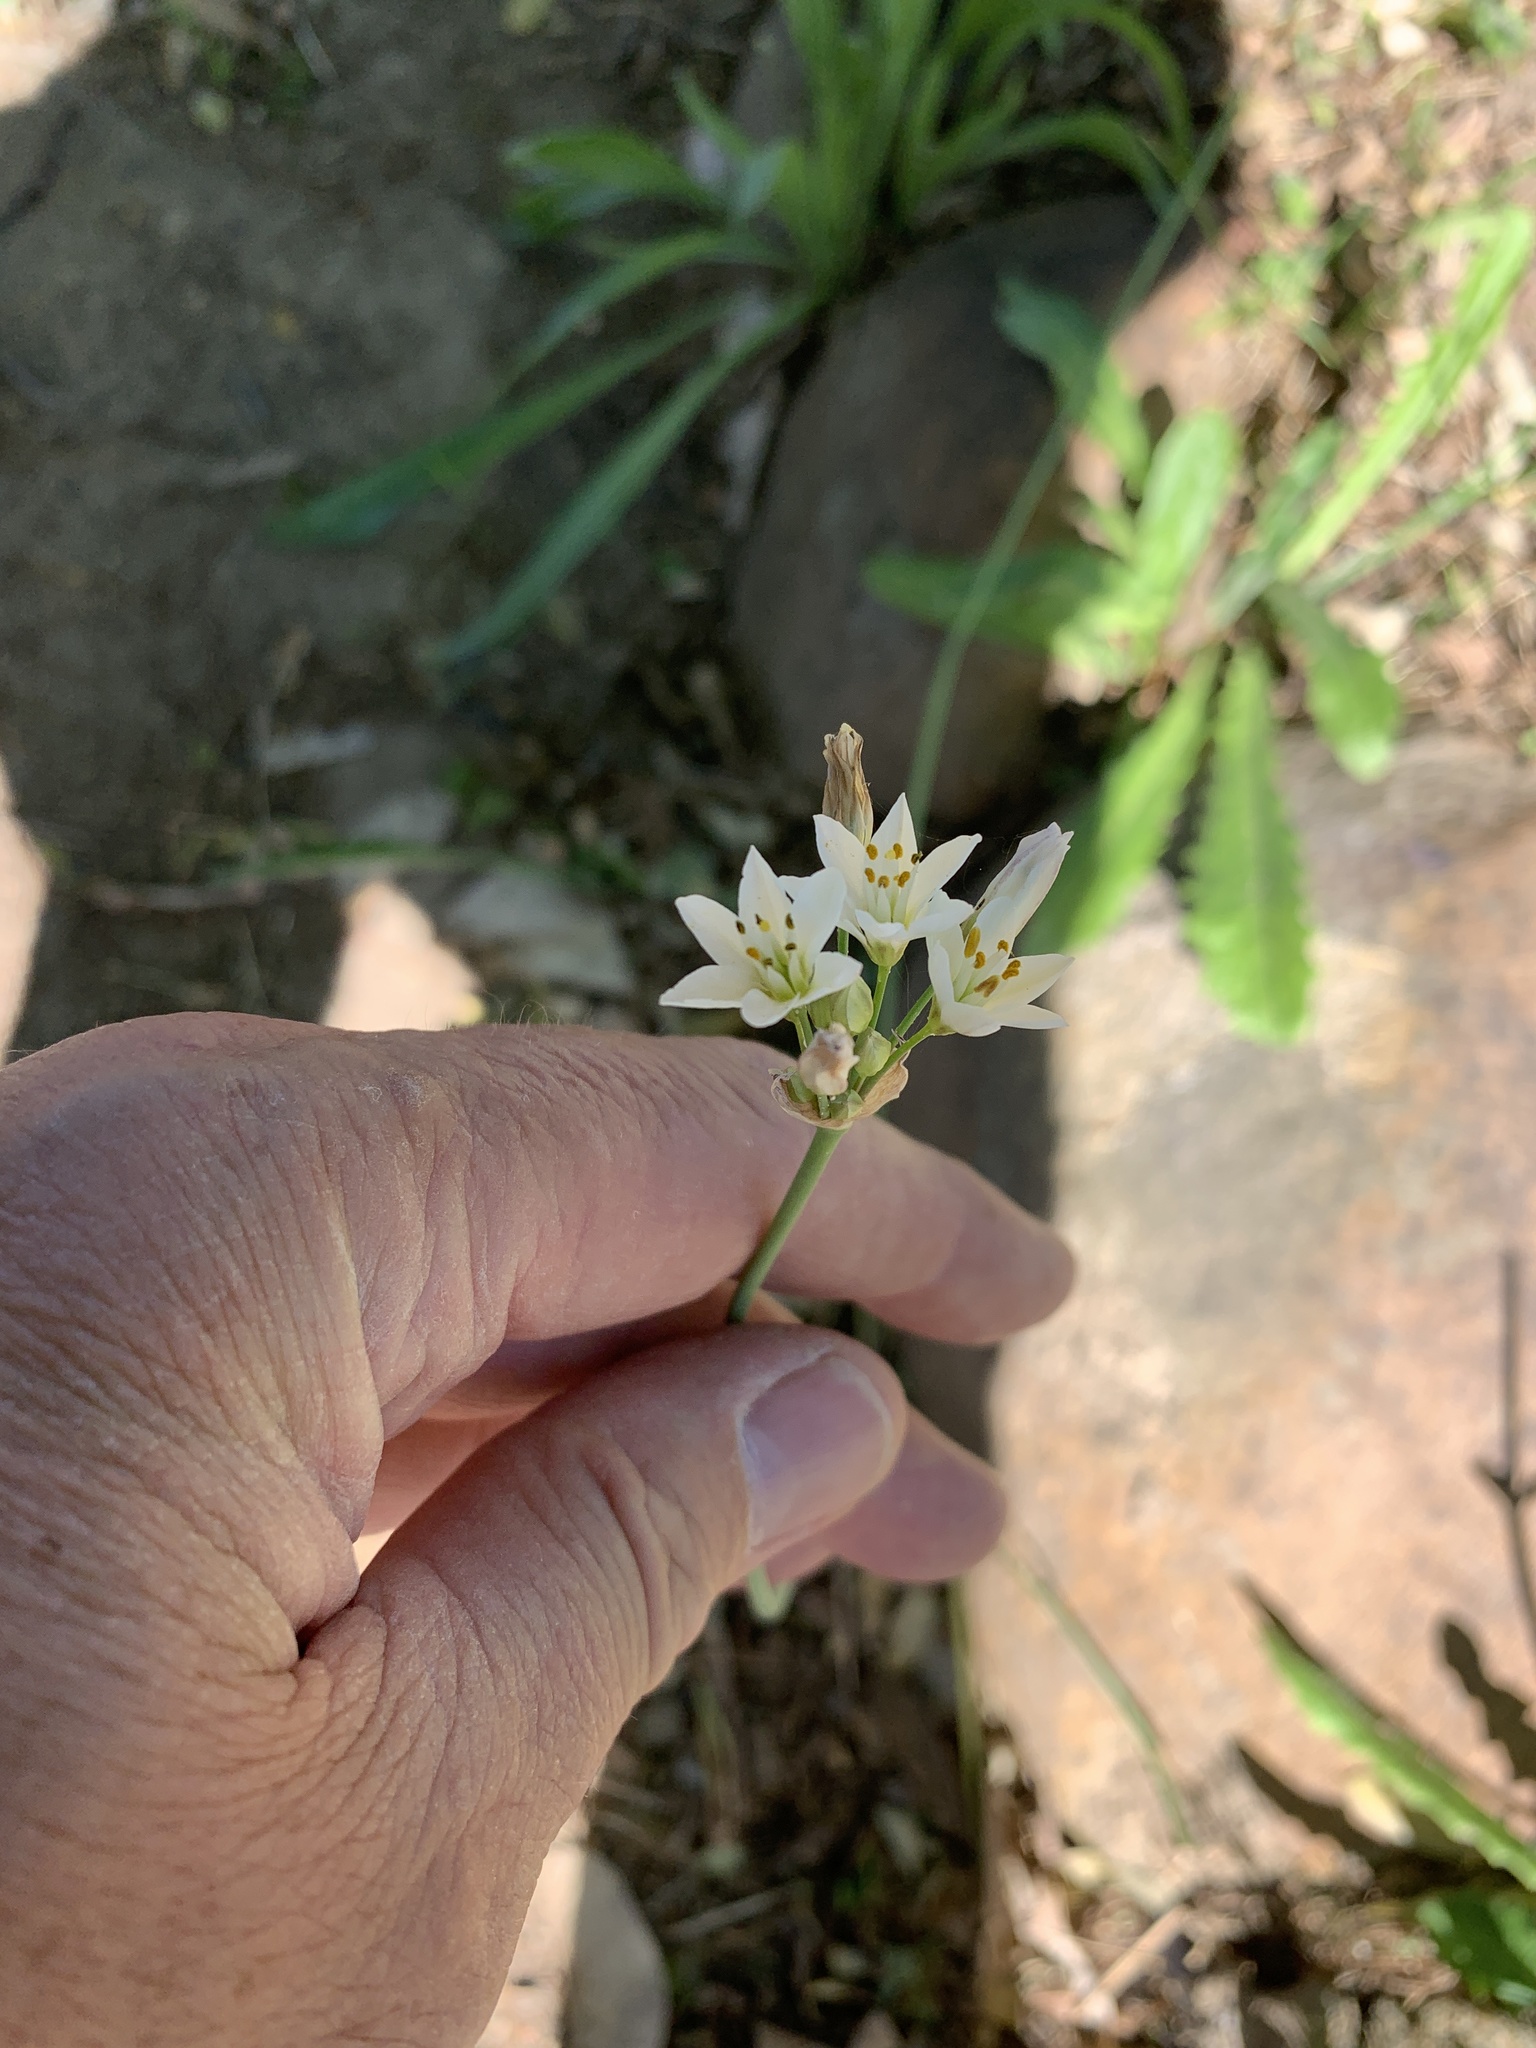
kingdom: Plantae
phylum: Tracheophyta
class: Liliopsida
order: Asparagales
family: Amaryllidaceae
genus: Nothoscordum
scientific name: Nothoscordum gracile
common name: Slender false garlic
